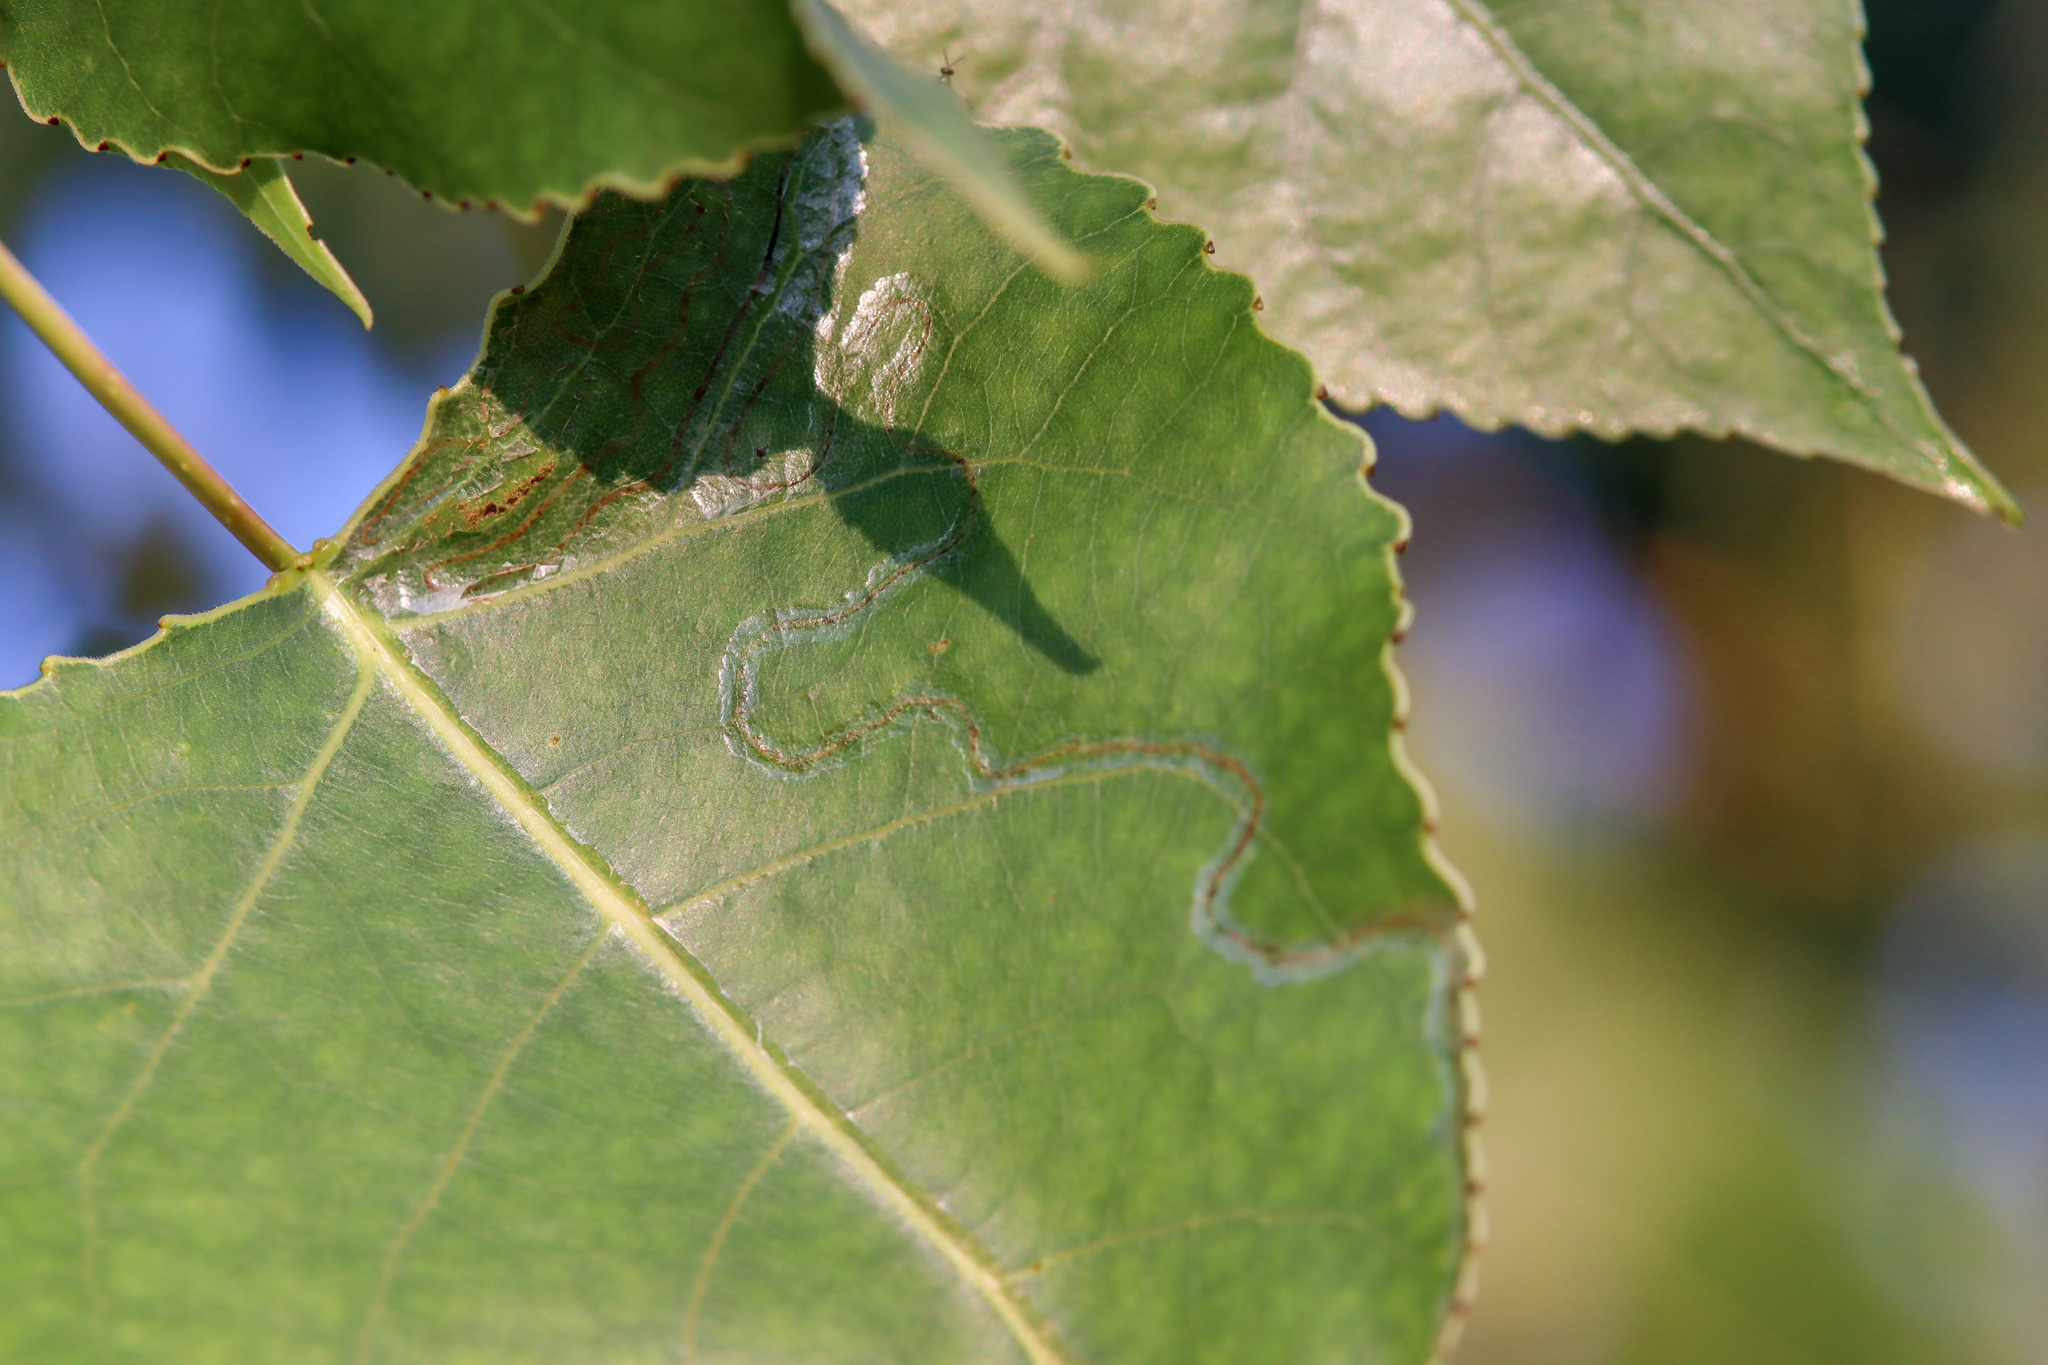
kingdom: Animalia
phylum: Arthropoda
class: Insecta
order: Lepidoptera
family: Gracillariidae
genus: Phyllocnistis
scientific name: Phyllocnistis populiella
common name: Aspen serpentine leafminer moth
